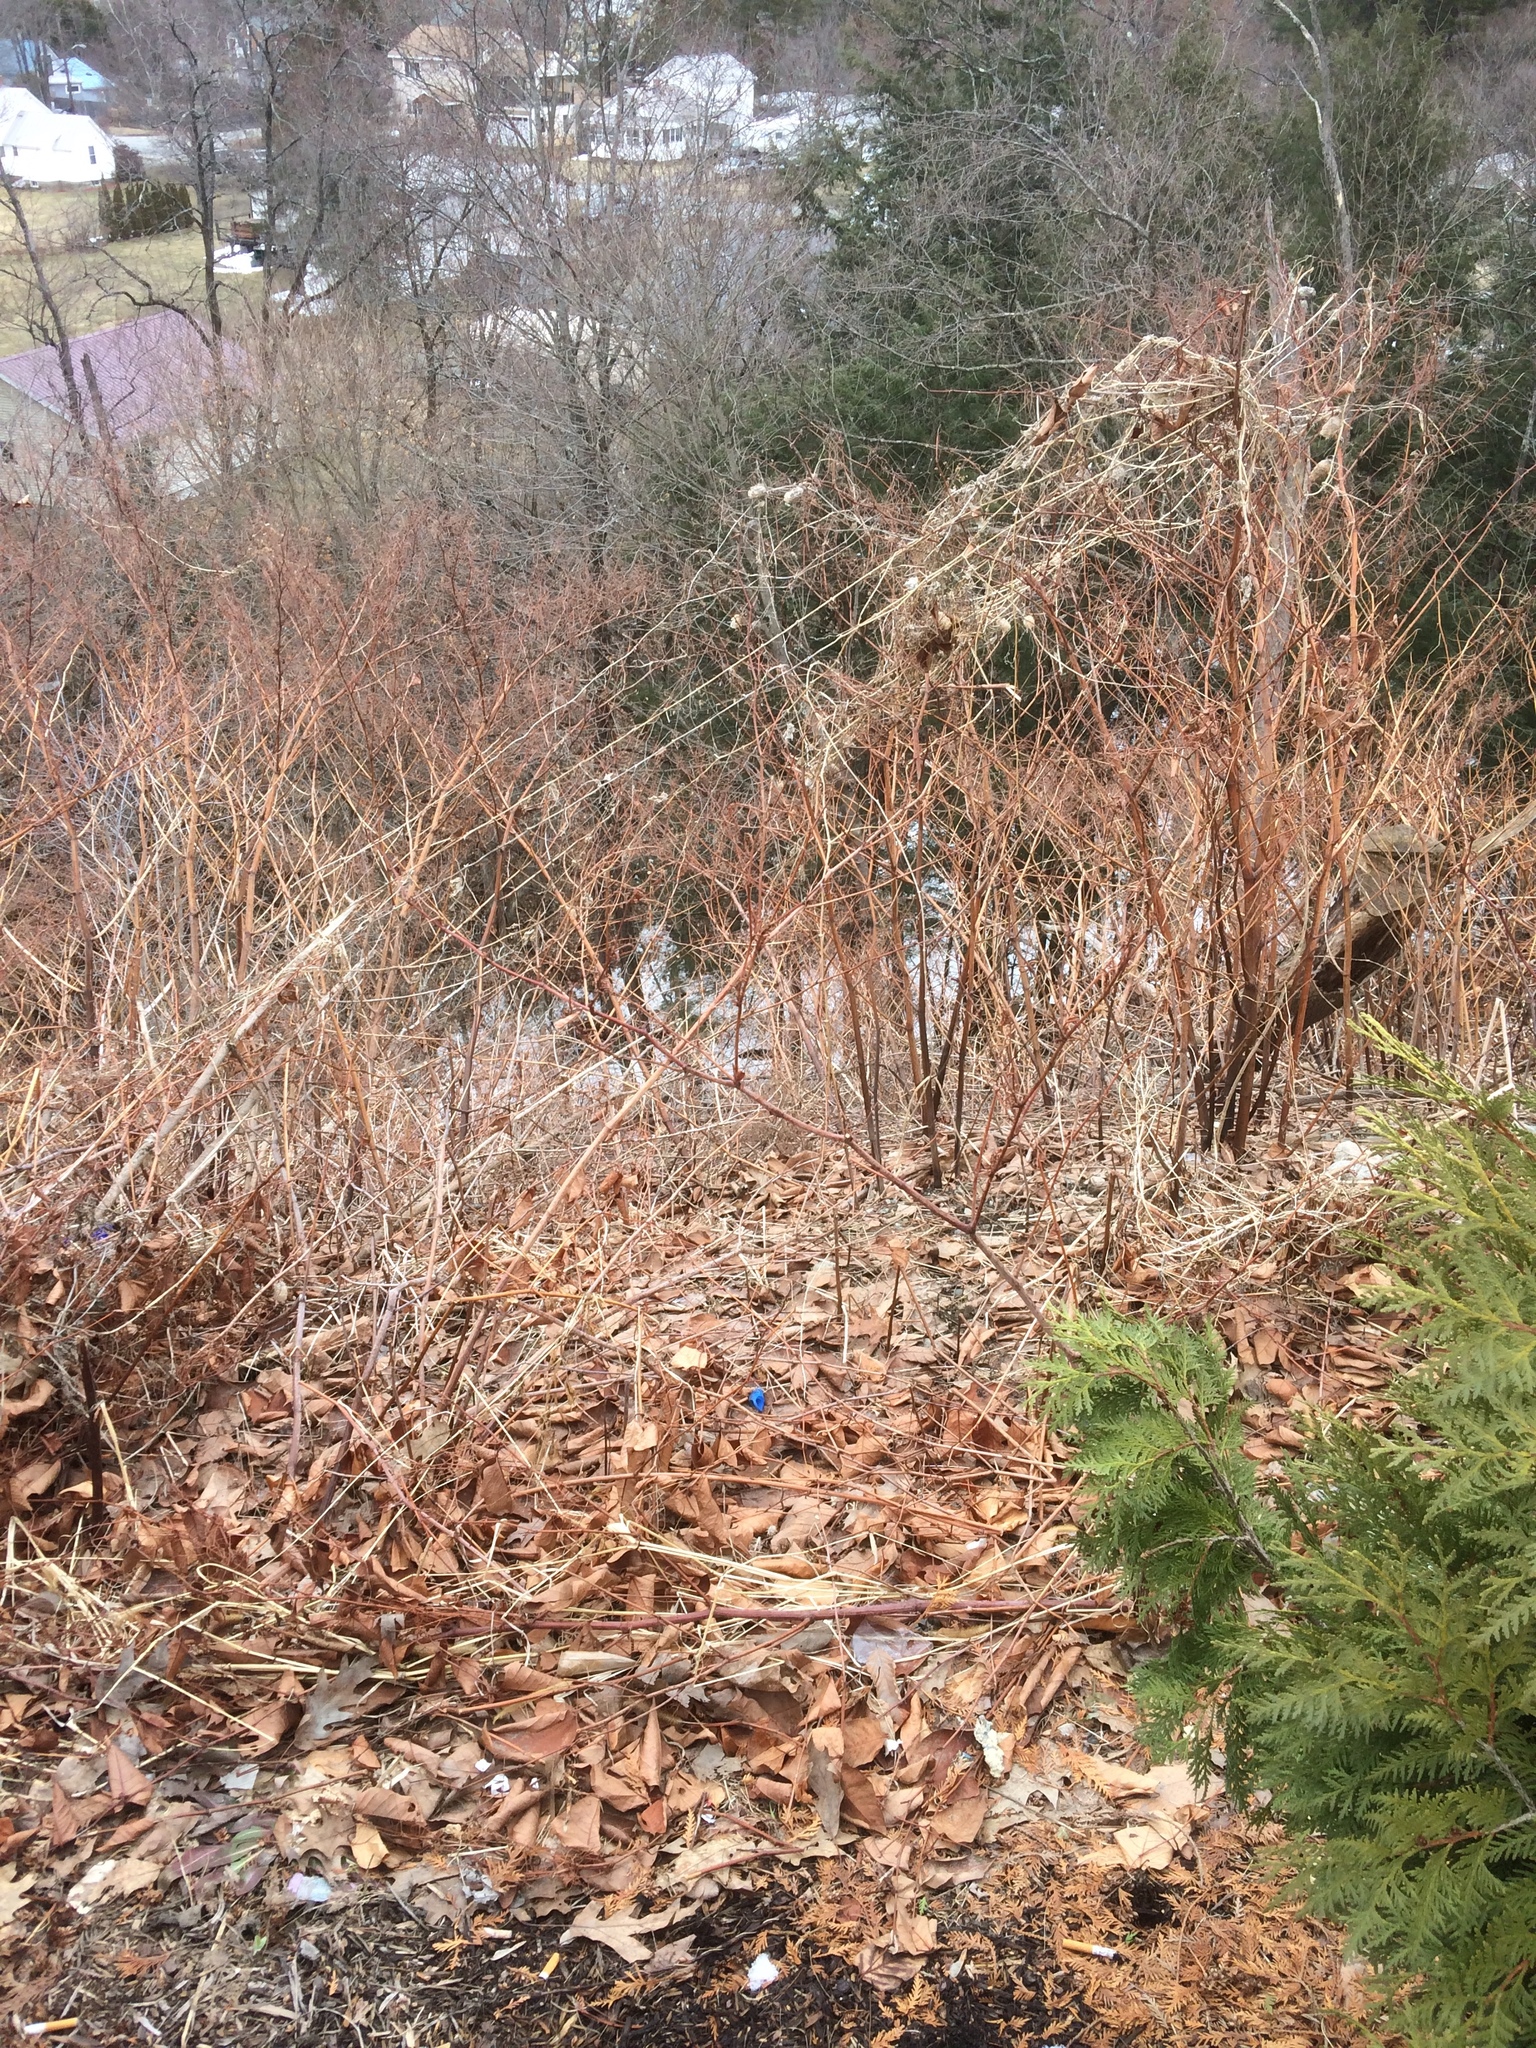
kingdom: Plantae
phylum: Tracheophyta
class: Magnoliopsida
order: Caryophyllales
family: Polygonaceae
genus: Reynoutria
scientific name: Reynoutria japonica
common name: Japanese knotweed
